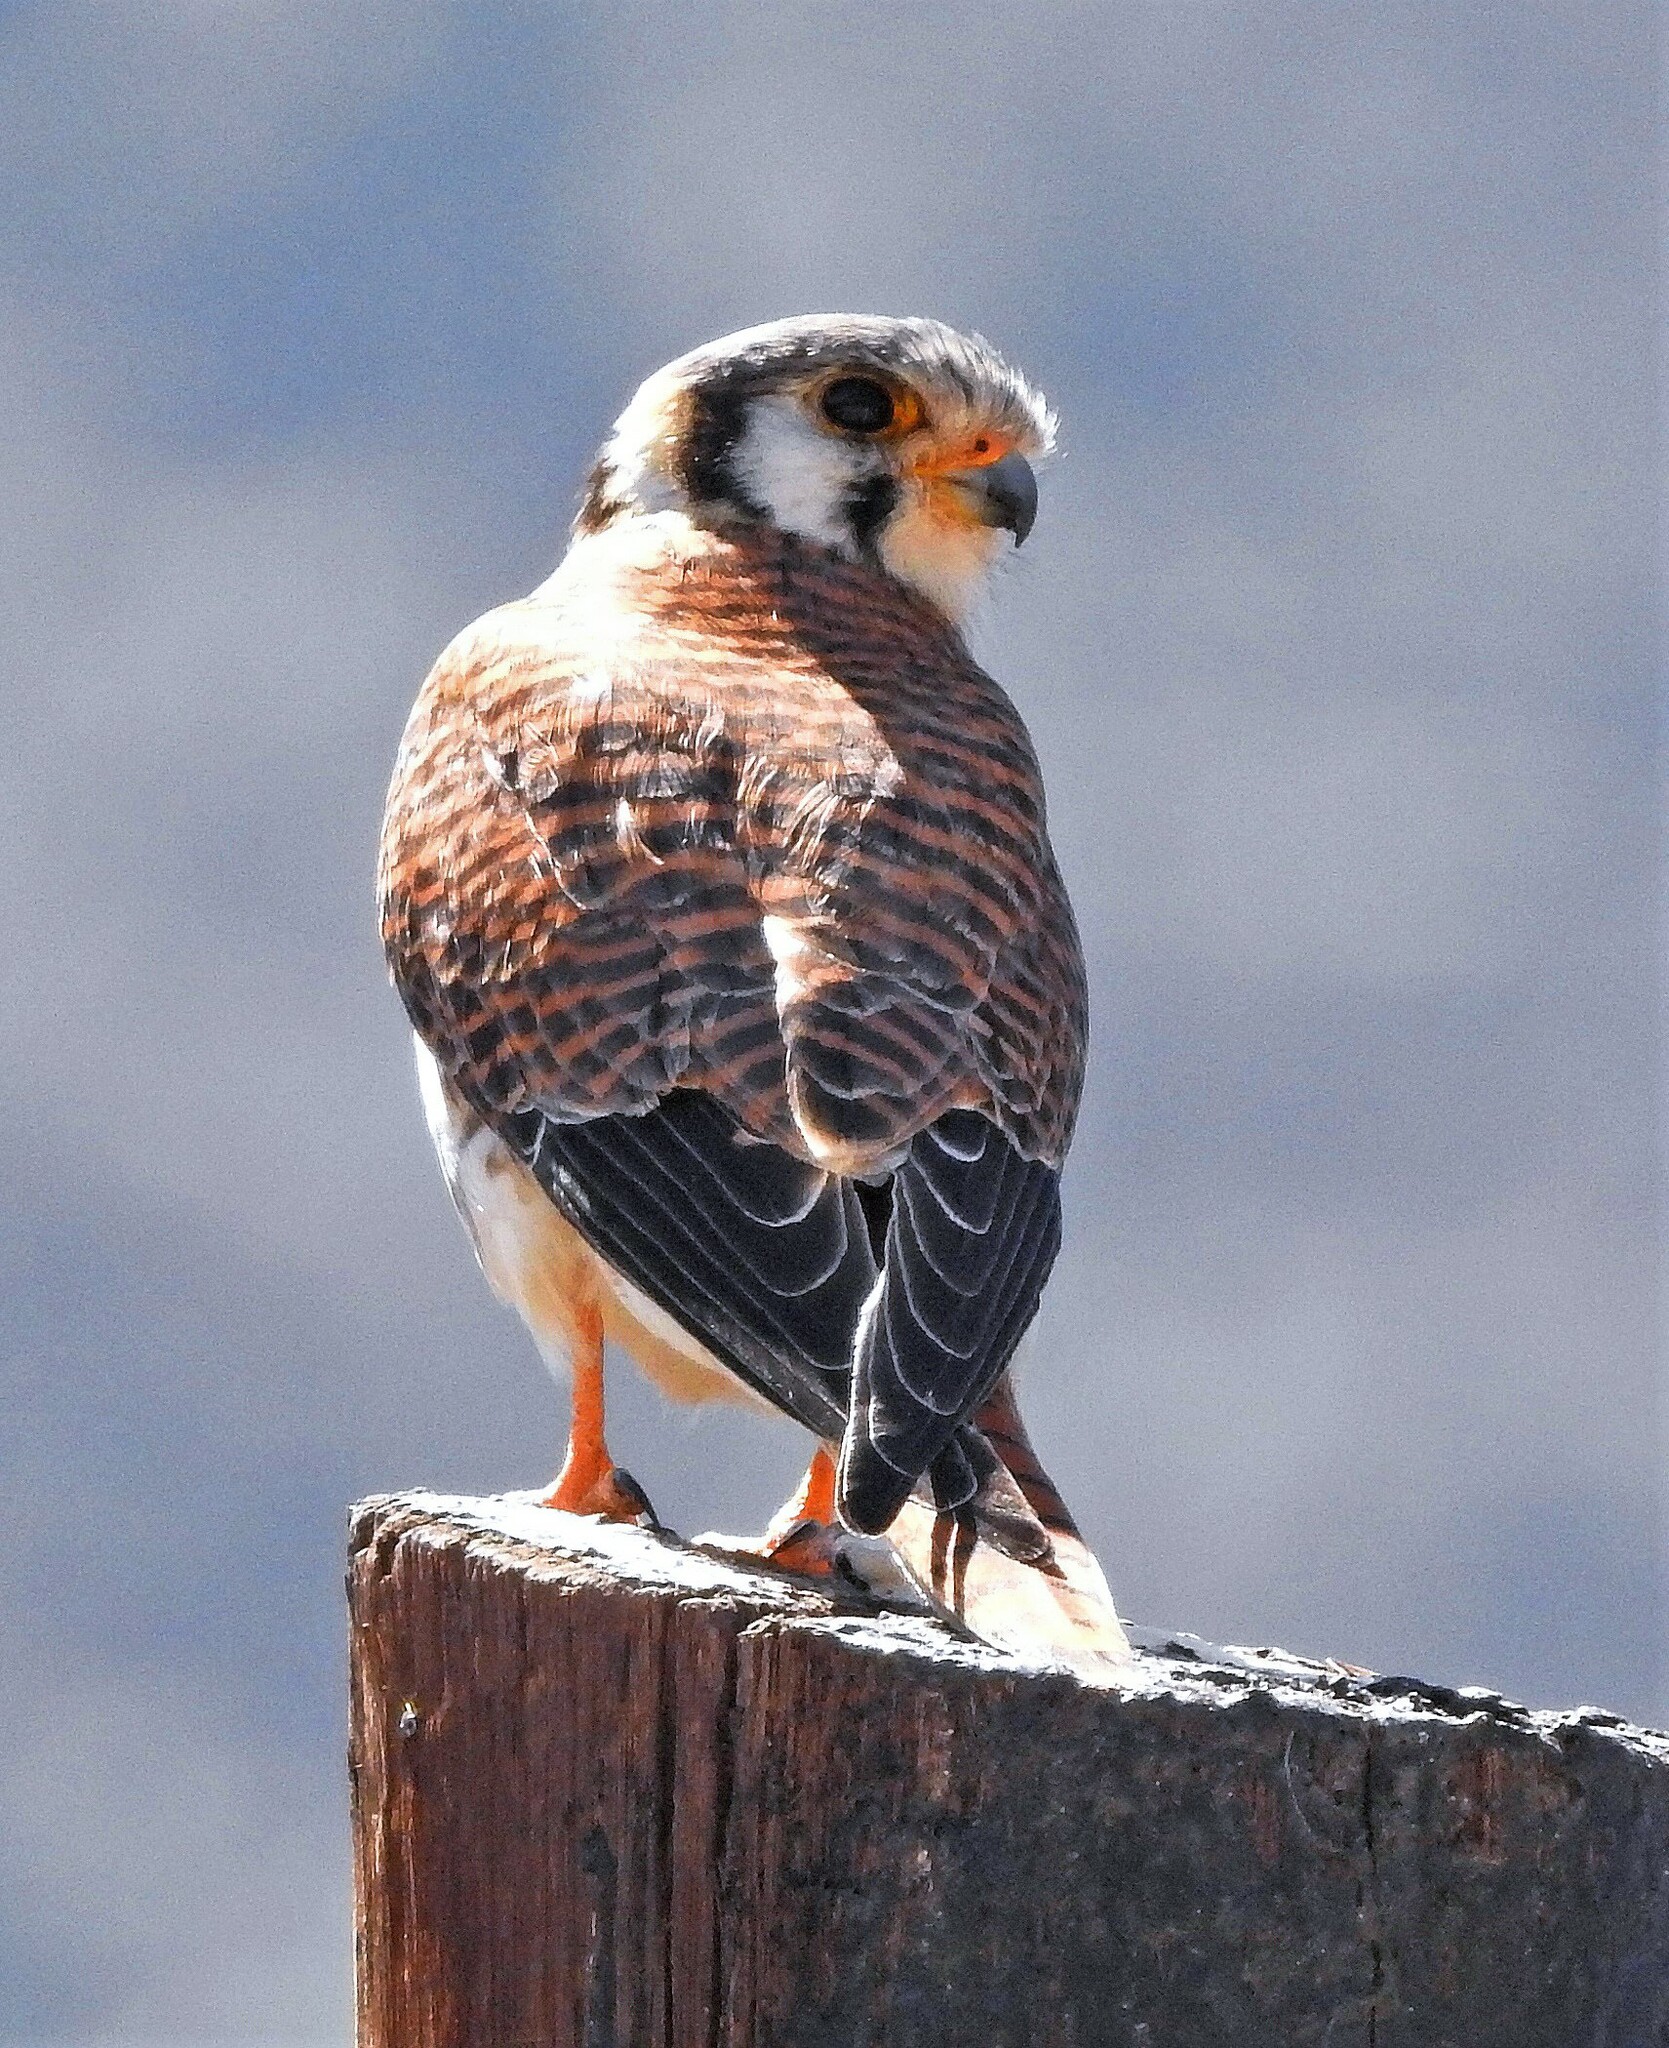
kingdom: Animalia
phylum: Chordata
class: Aves
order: Falconiformes
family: Falconidae
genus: Falco
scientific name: Falco sparverius
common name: American kestrel
